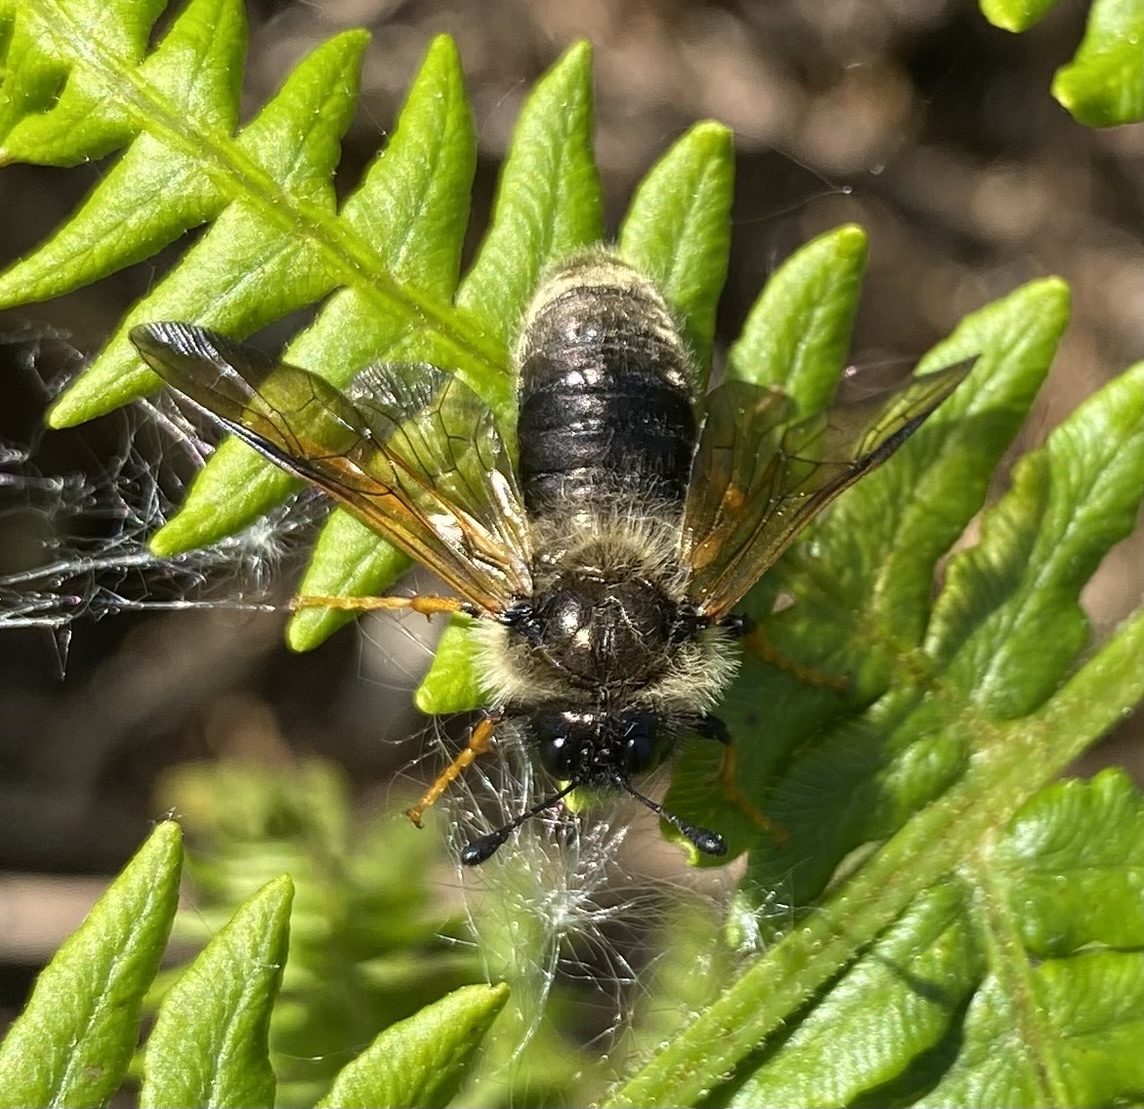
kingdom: Animalia
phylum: Arthropoda
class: Insecta
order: Hymenoptera
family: Cimbicidae
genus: Trichiosoma
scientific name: Trichiosoma sorbi
